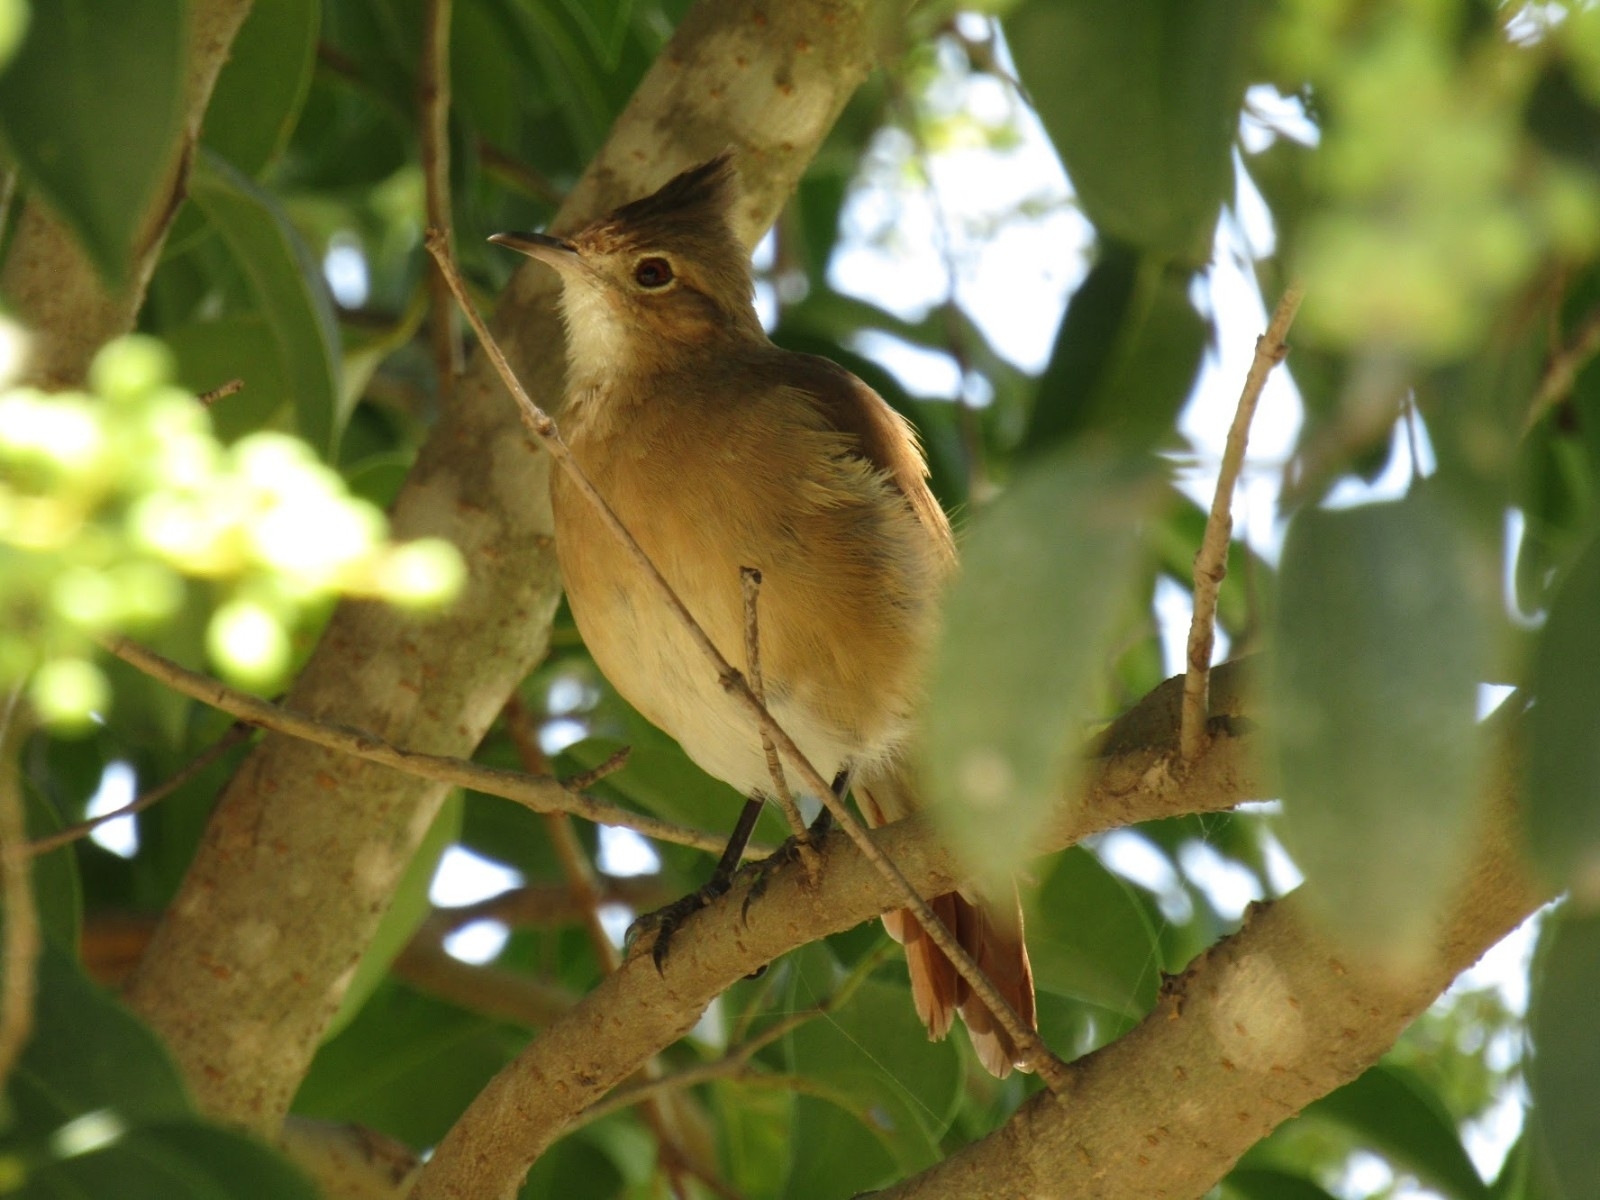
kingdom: Animalia
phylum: Chordata
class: Aves
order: Passeriformes
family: Furnariidae
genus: Furnarius
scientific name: Furnarius cristatus
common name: Crested hornero
